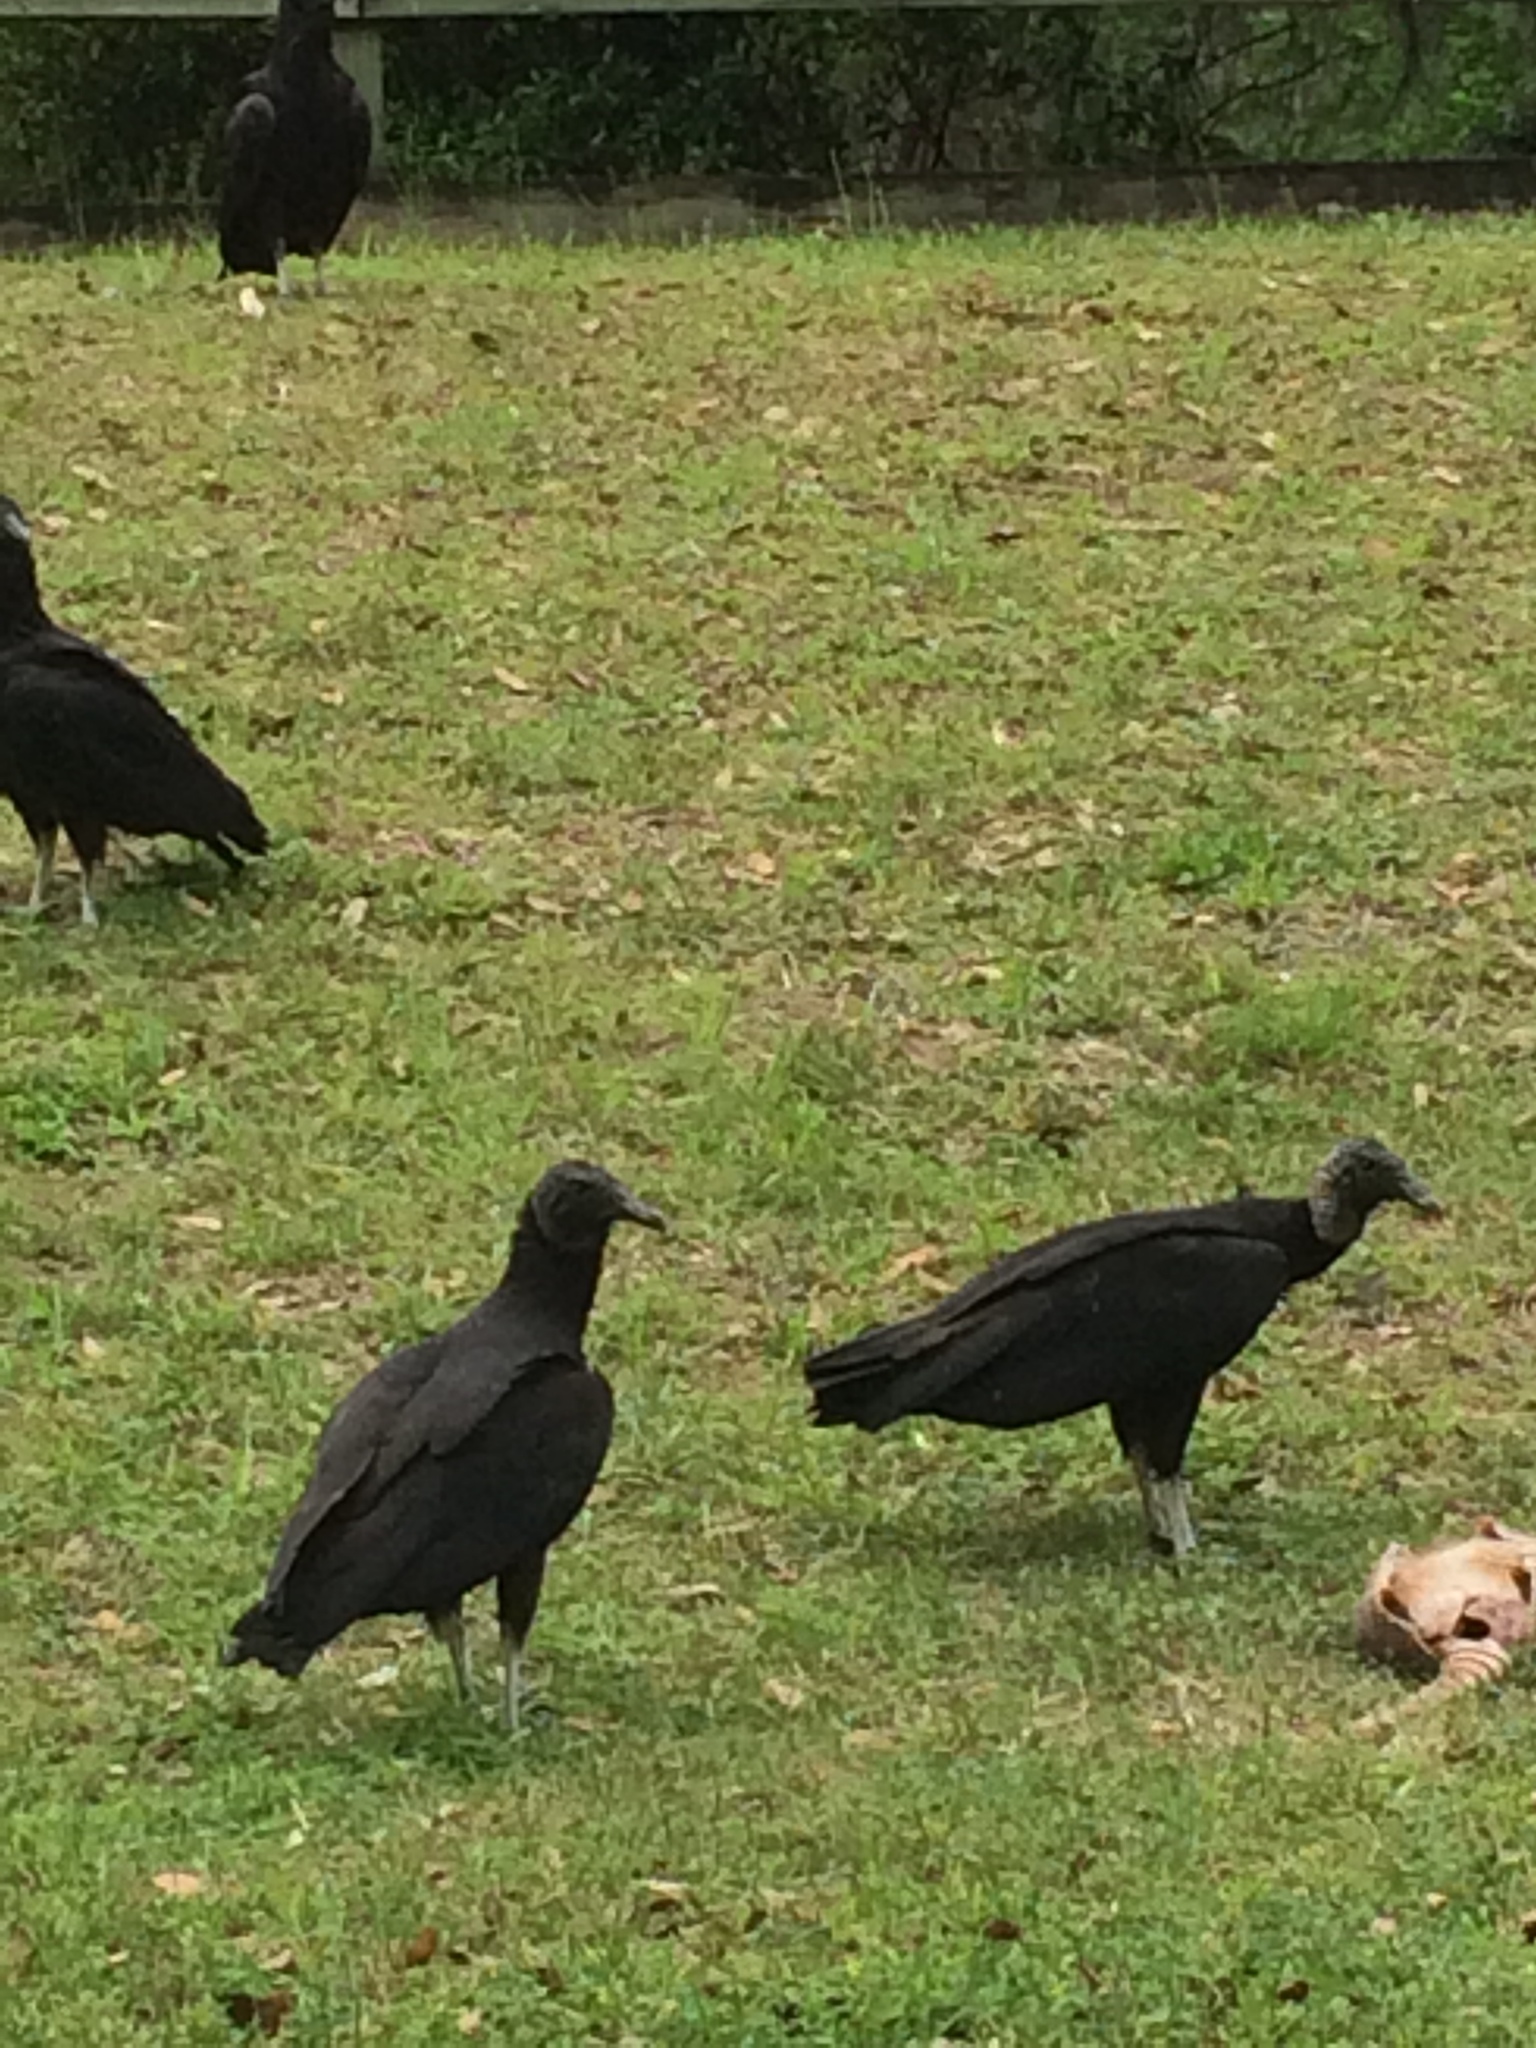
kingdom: Animalia
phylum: Chordata
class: Aves
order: Accipitriformes
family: Cathartidae
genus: Coragyps
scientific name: Coragyps atratus
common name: Black vulture
